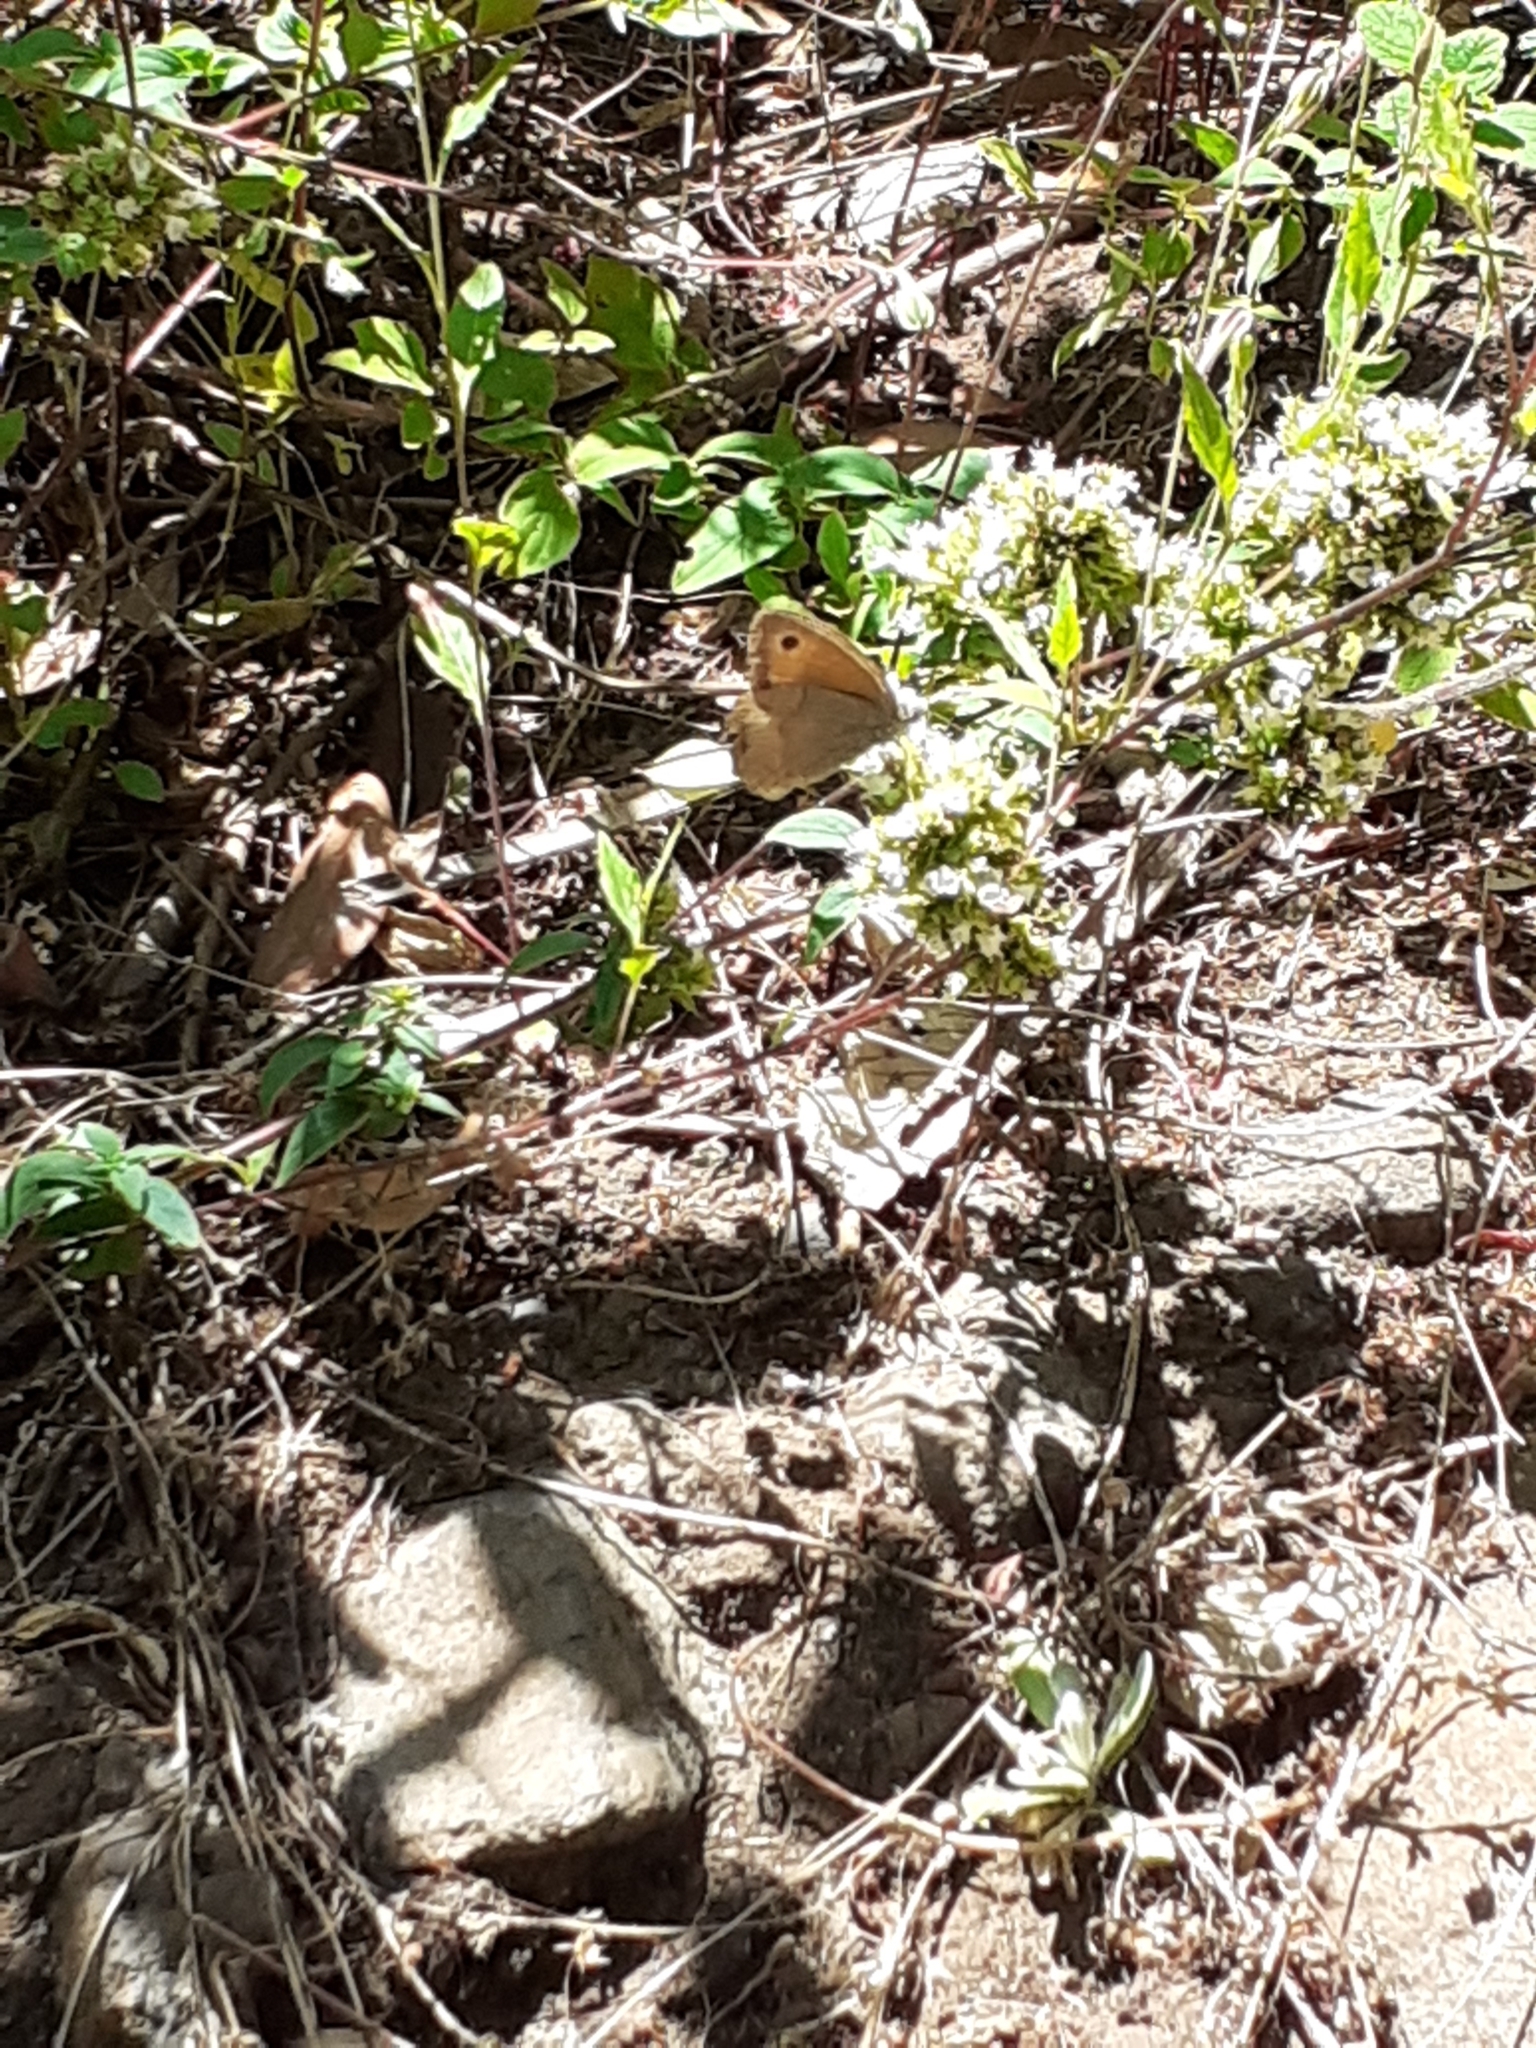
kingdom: Animalia
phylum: Arthropoda
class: Insecta
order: Lepidoptera
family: Nymphalidae
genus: Maniola
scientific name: Maniola jurtina
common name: Meadow brown
